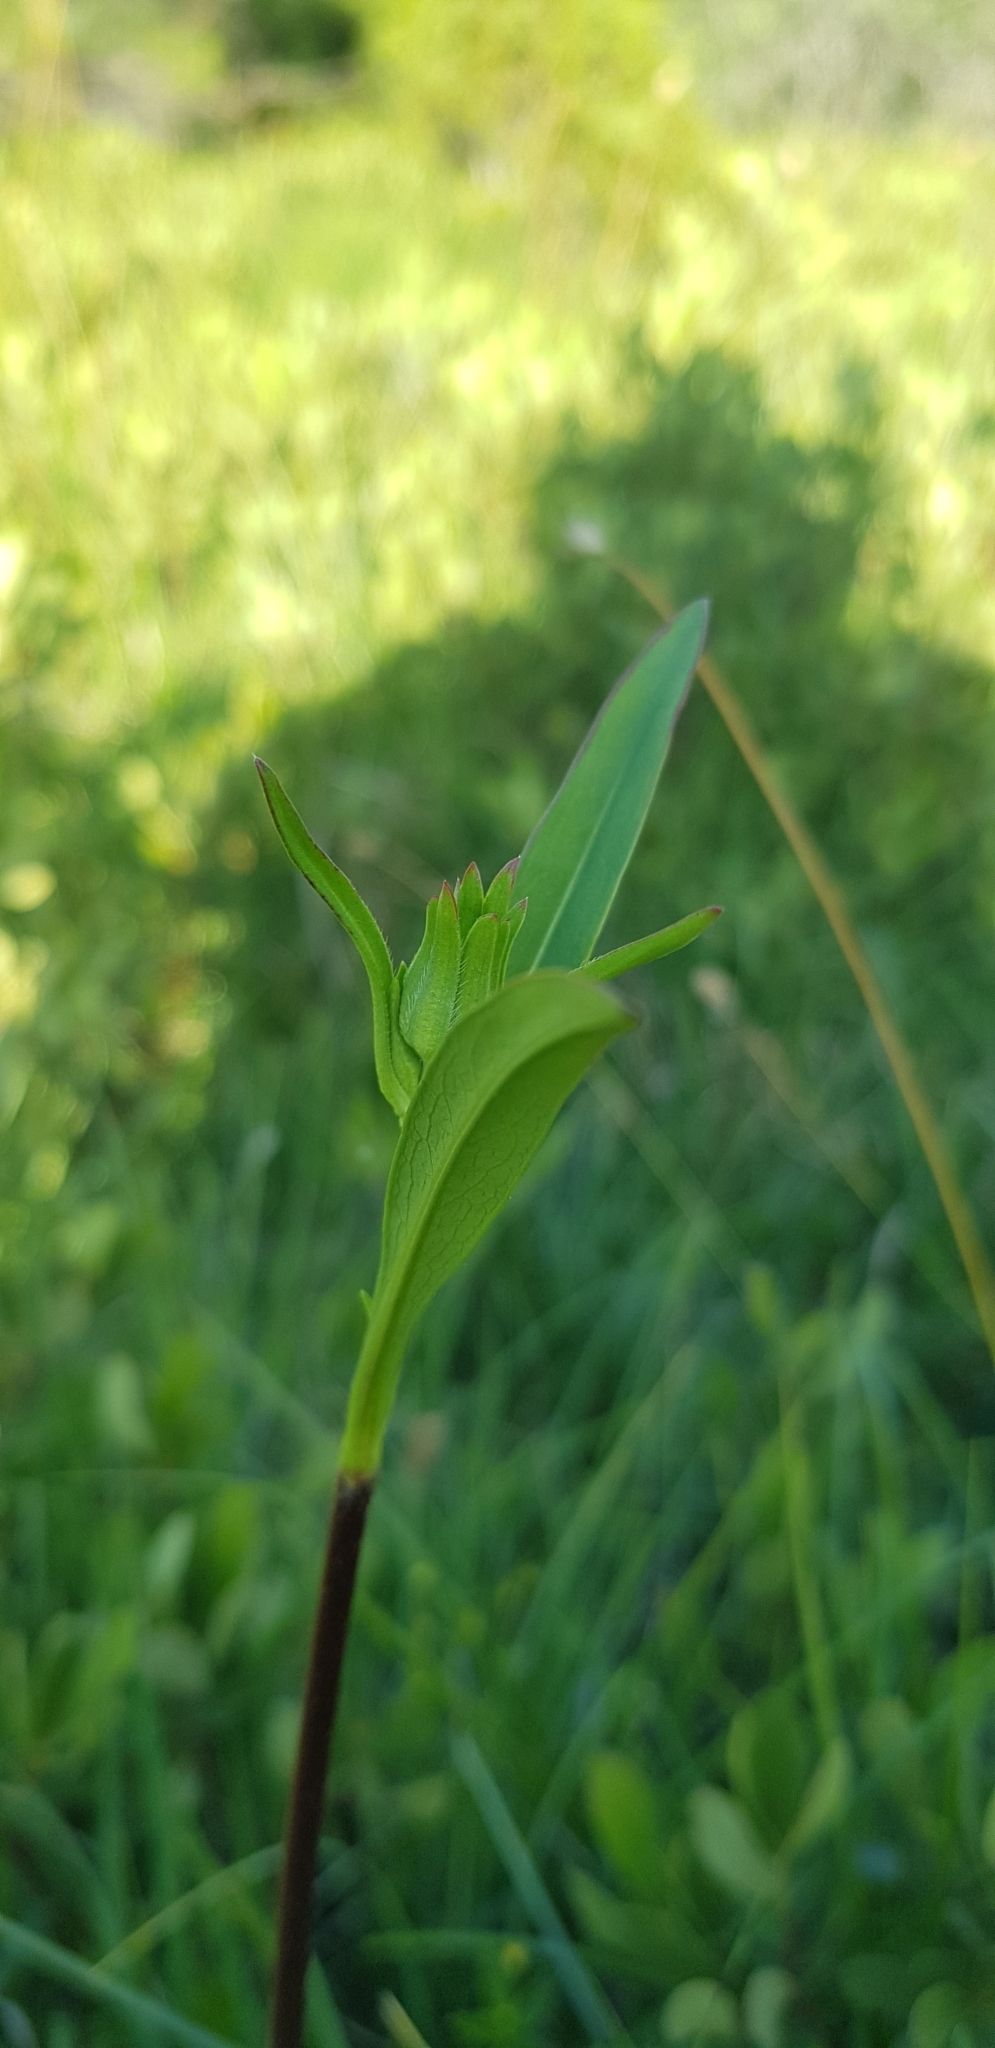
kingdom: Plantae
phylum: Tracheophyta
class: Magnoliopsida
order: Dipsacales
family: Caprifoliaceae
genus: Succisa
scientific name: Succisa pratensis
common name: Devil's-bit
